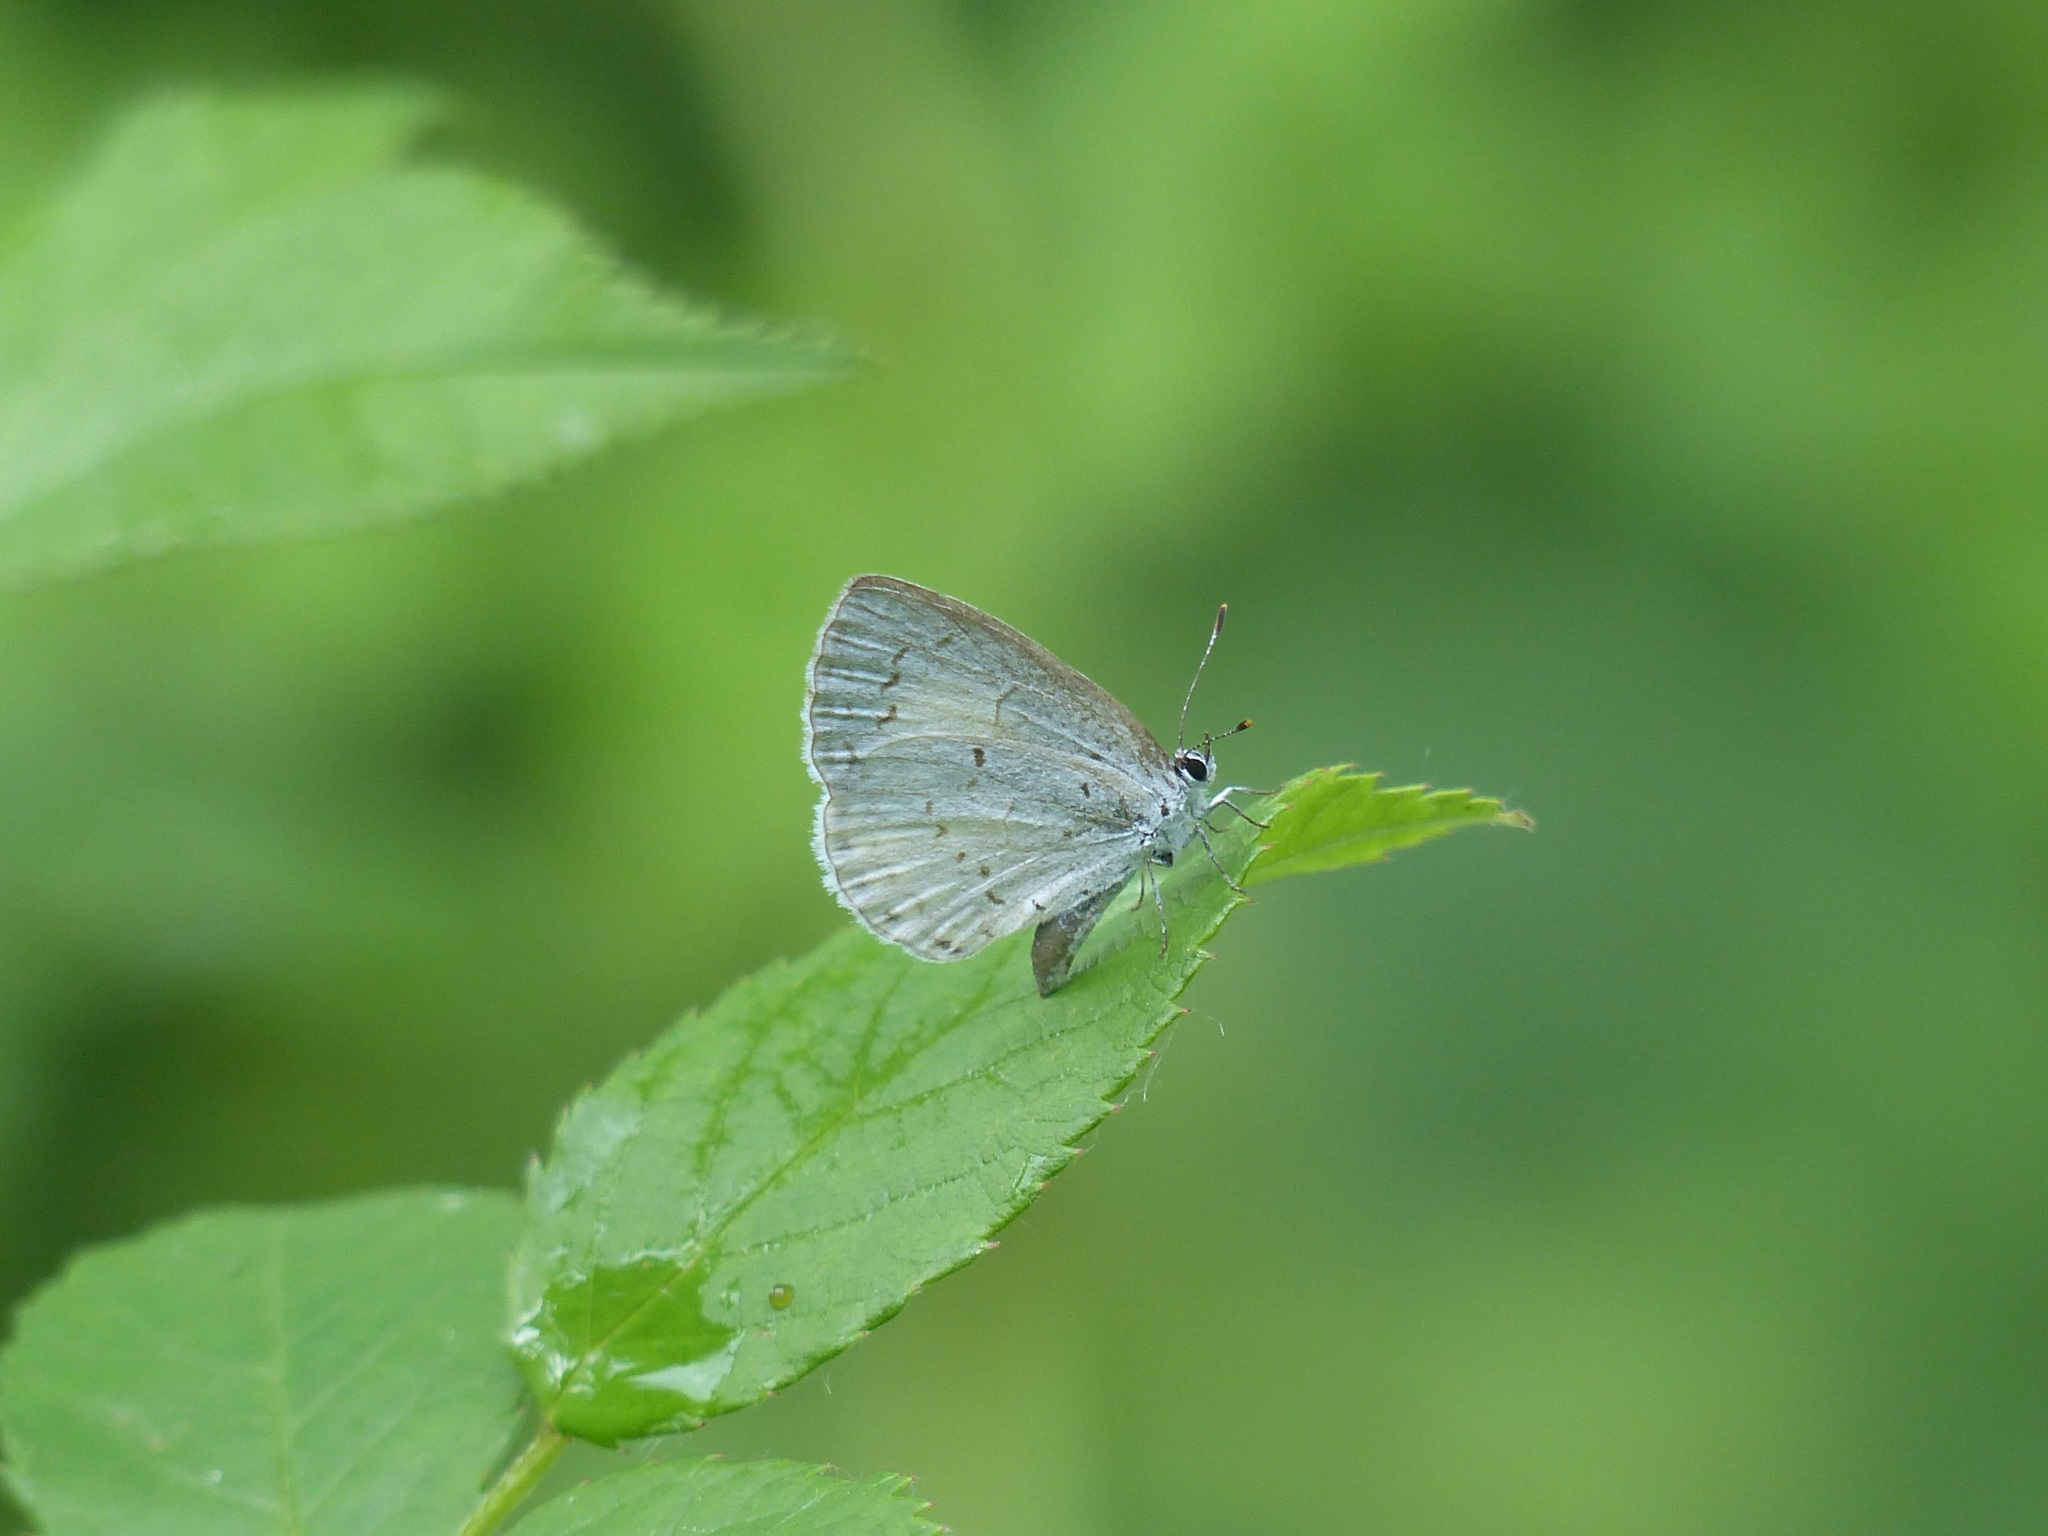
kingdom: Animalia
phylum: Arthropoda
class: Insecta
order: Lepidoptera
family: Lycaenidae
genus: Cyaniris
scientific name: Cyaniris neglecta
